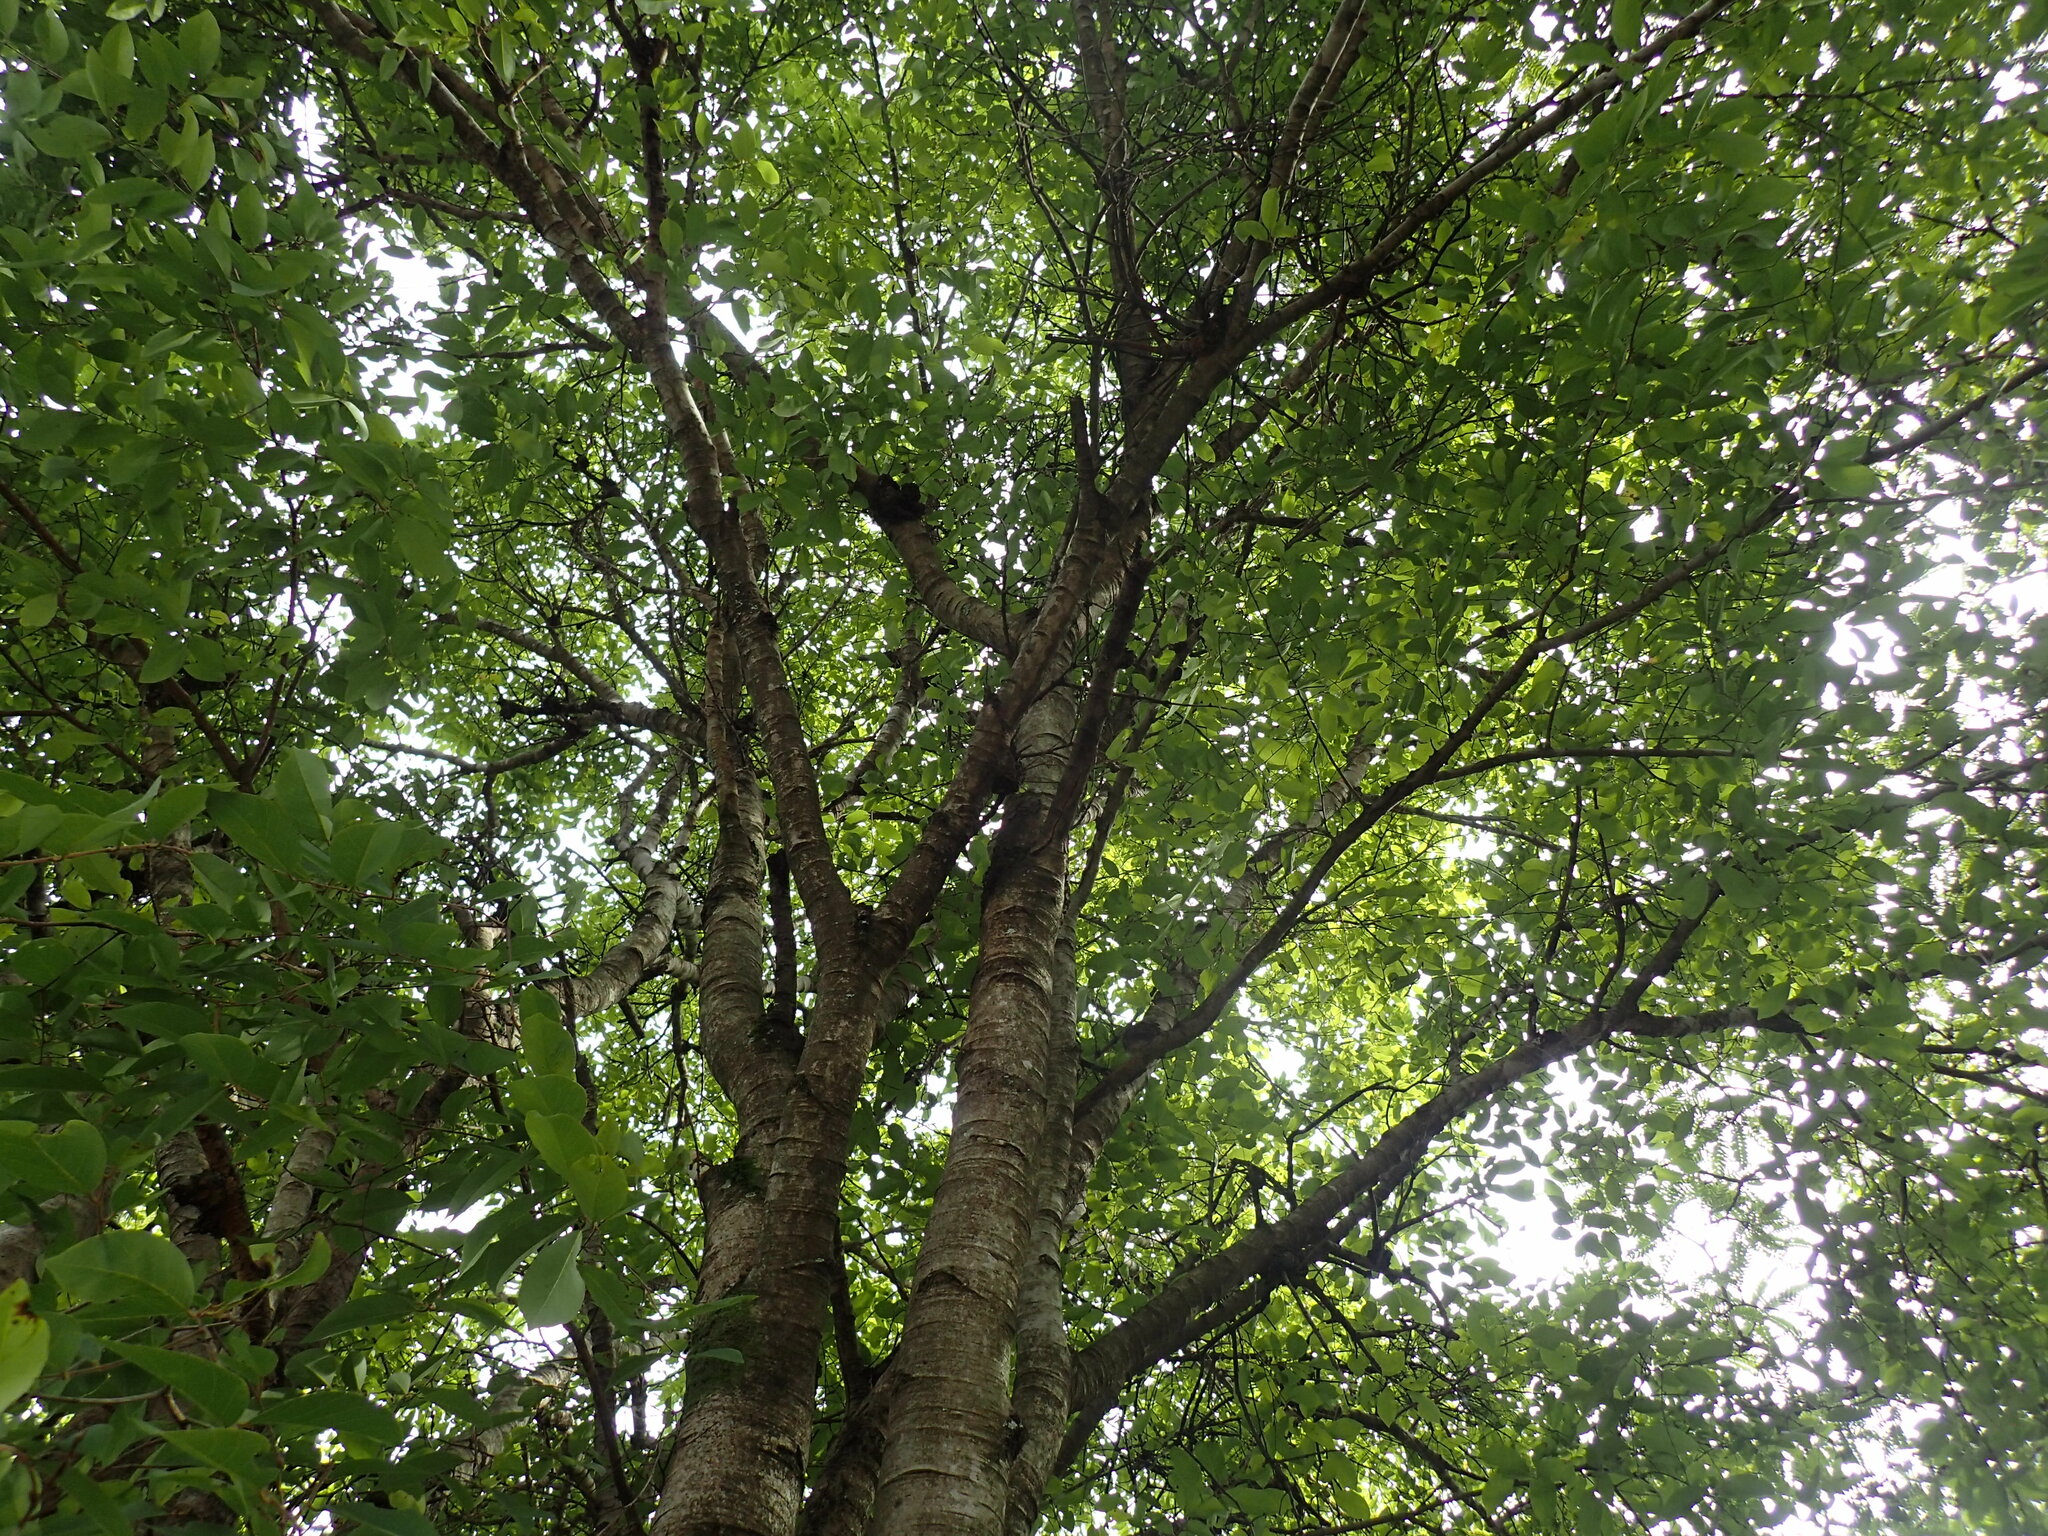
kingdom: Plantae
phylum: Tracheophyta
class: Magnoliopsida
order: Malpighiales
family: Phyllanthaceae
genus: Pseudolachnostylis
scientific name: Pseudolachnostylis maprouneifolia
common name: Kudu berry
